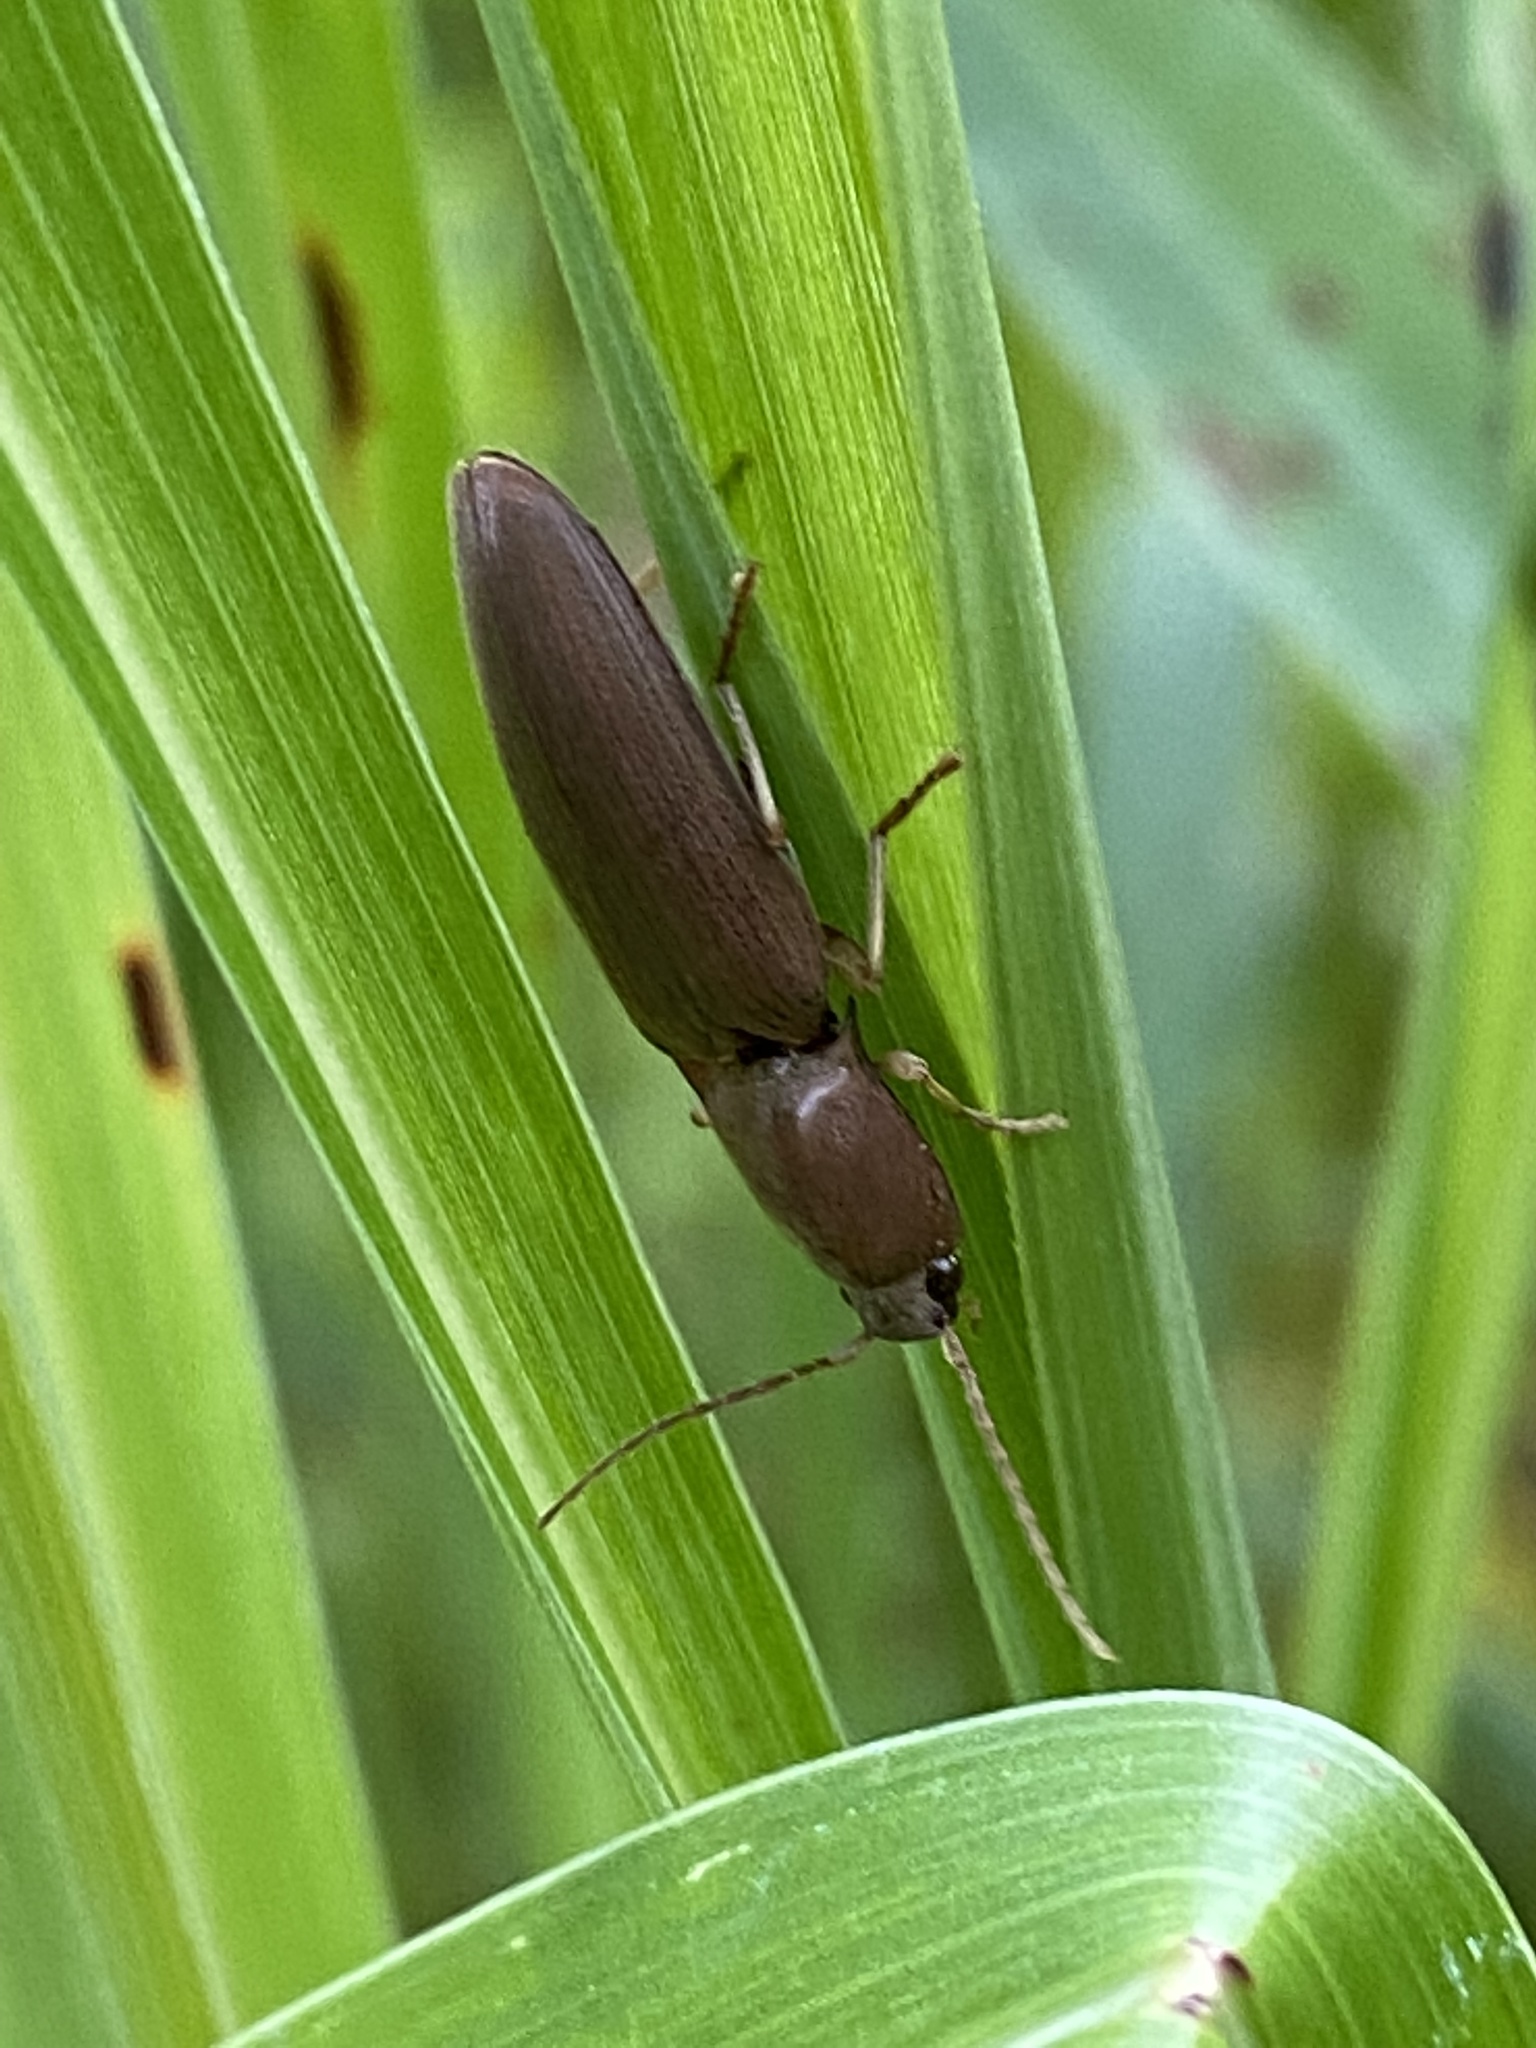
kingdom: Animalia
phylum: Arthropoda
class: Insecta
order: Coleoptera
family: Elateridae
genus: Monocrepidius
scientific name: Monocrepidius lividus
